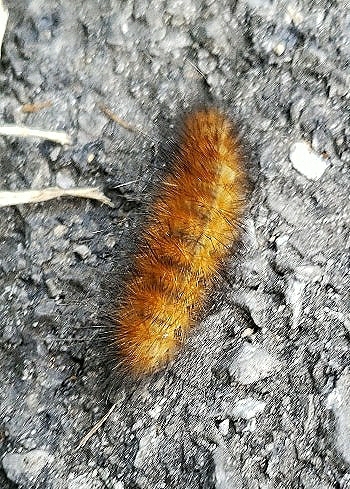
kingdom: Animalia
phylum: Arthropoda
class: Insecta
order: Lepidoptera
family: Erebidae
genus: Spilosoma
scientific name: Spilosoma virginica
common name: Virginia tiger moth
